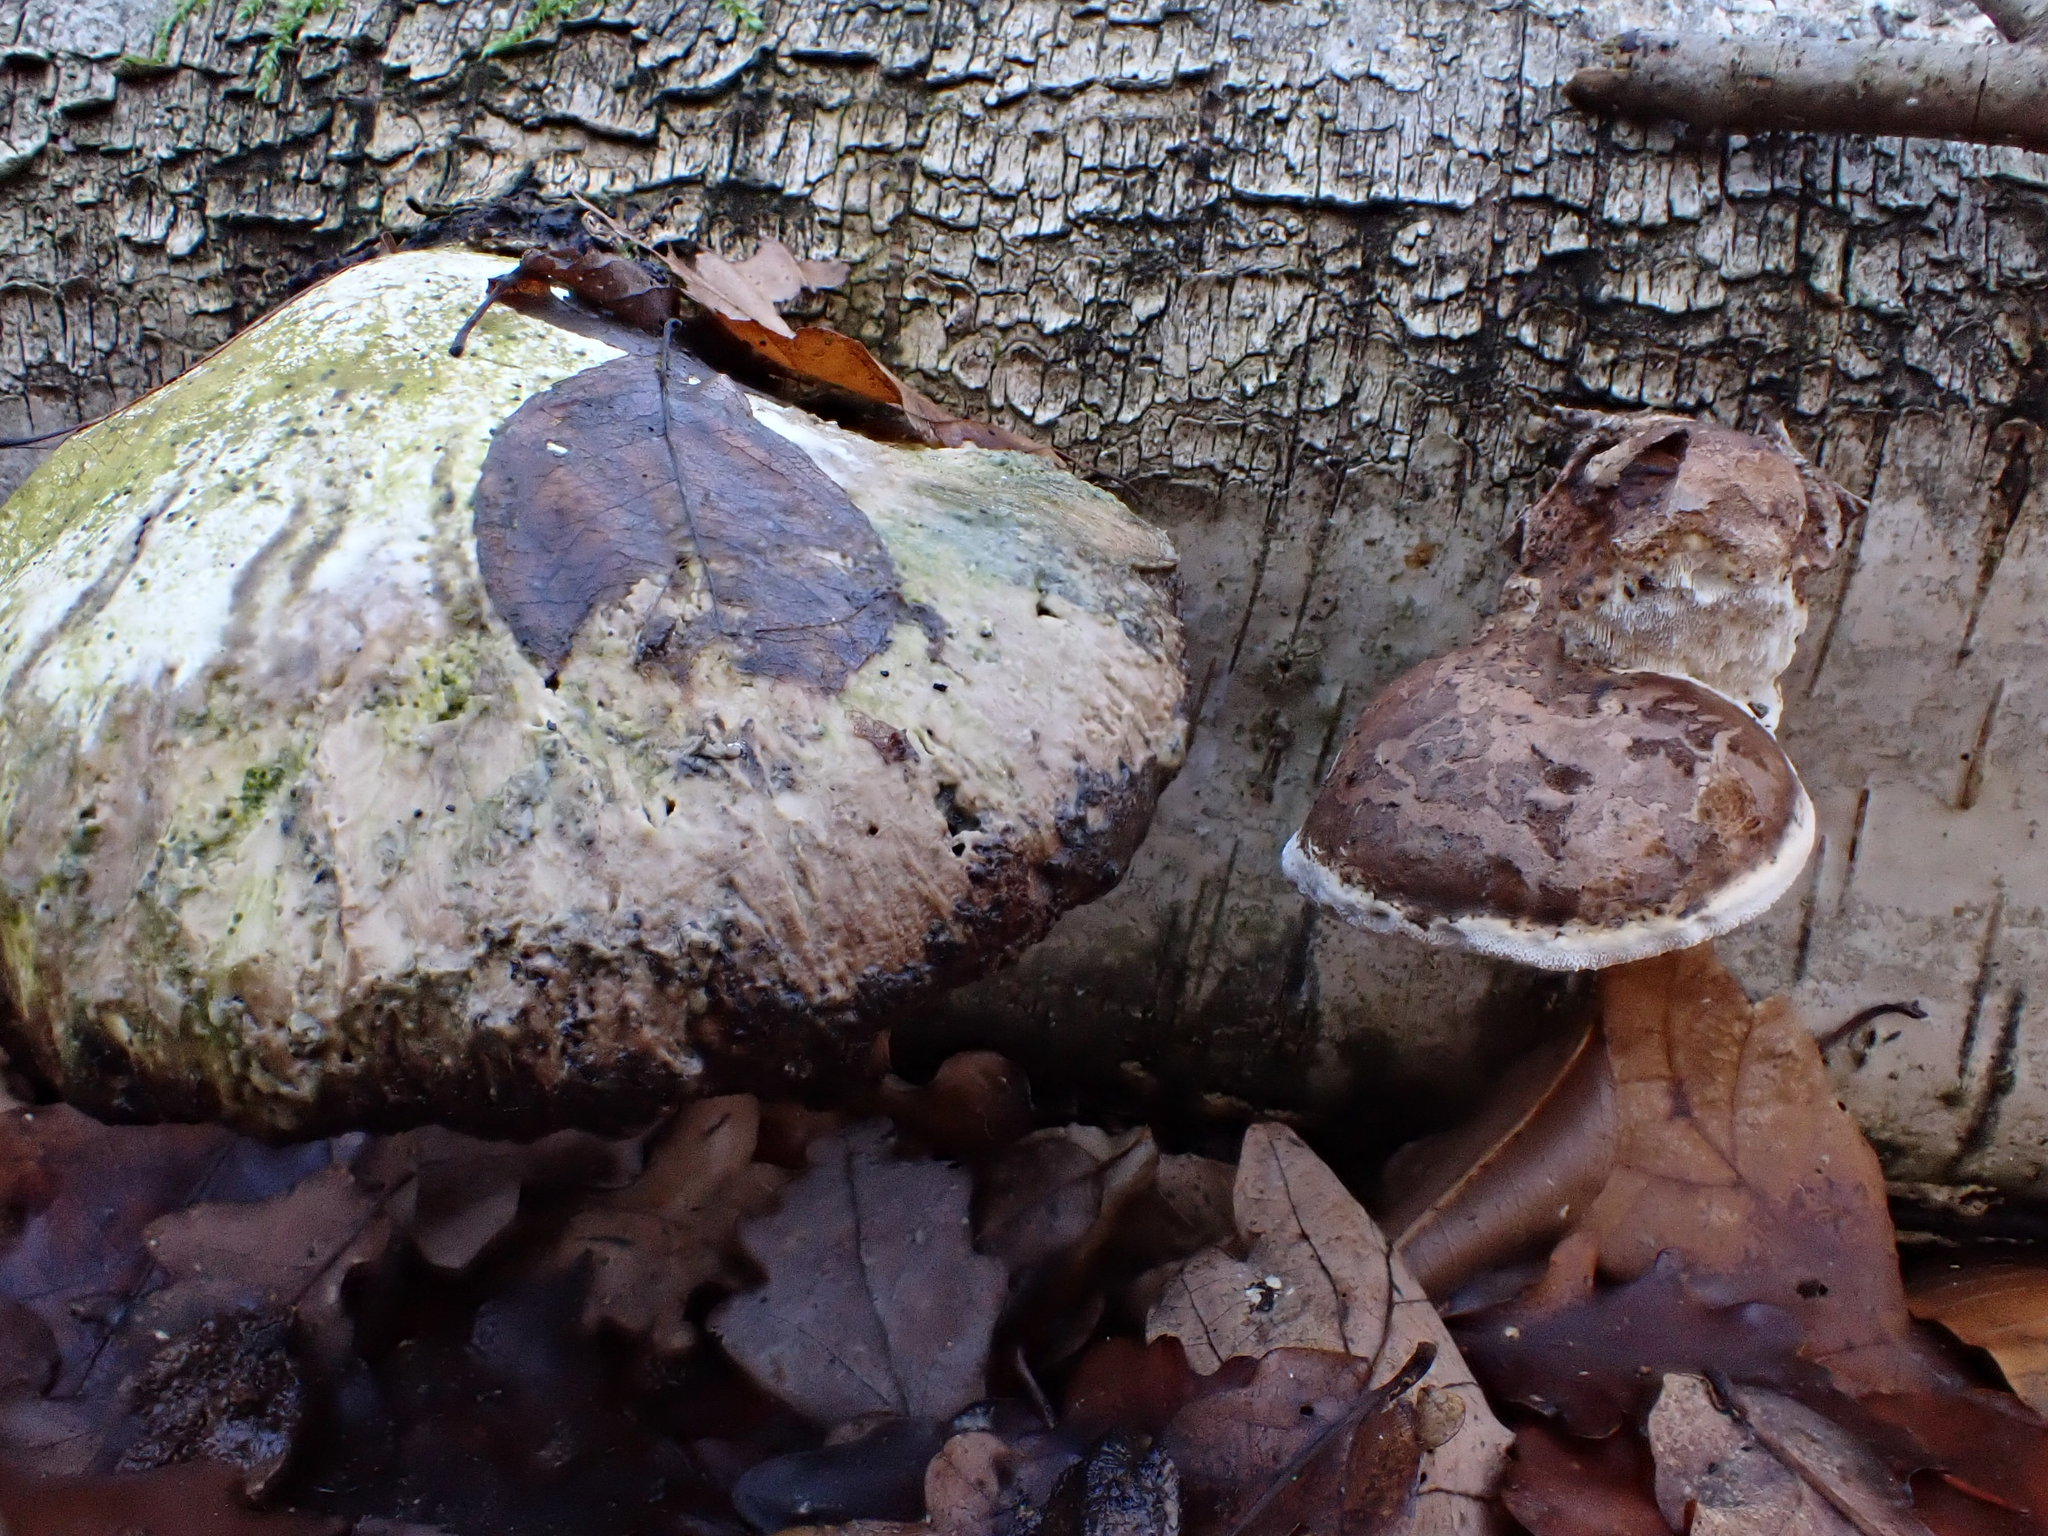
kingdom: Fungi
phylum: Basidiomycota
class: Agaricomycetes
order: Polyporales
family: Fomitopsidaceae
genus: Fomitopsis
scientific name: Fomitopsis betulina
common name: Birch polypore
